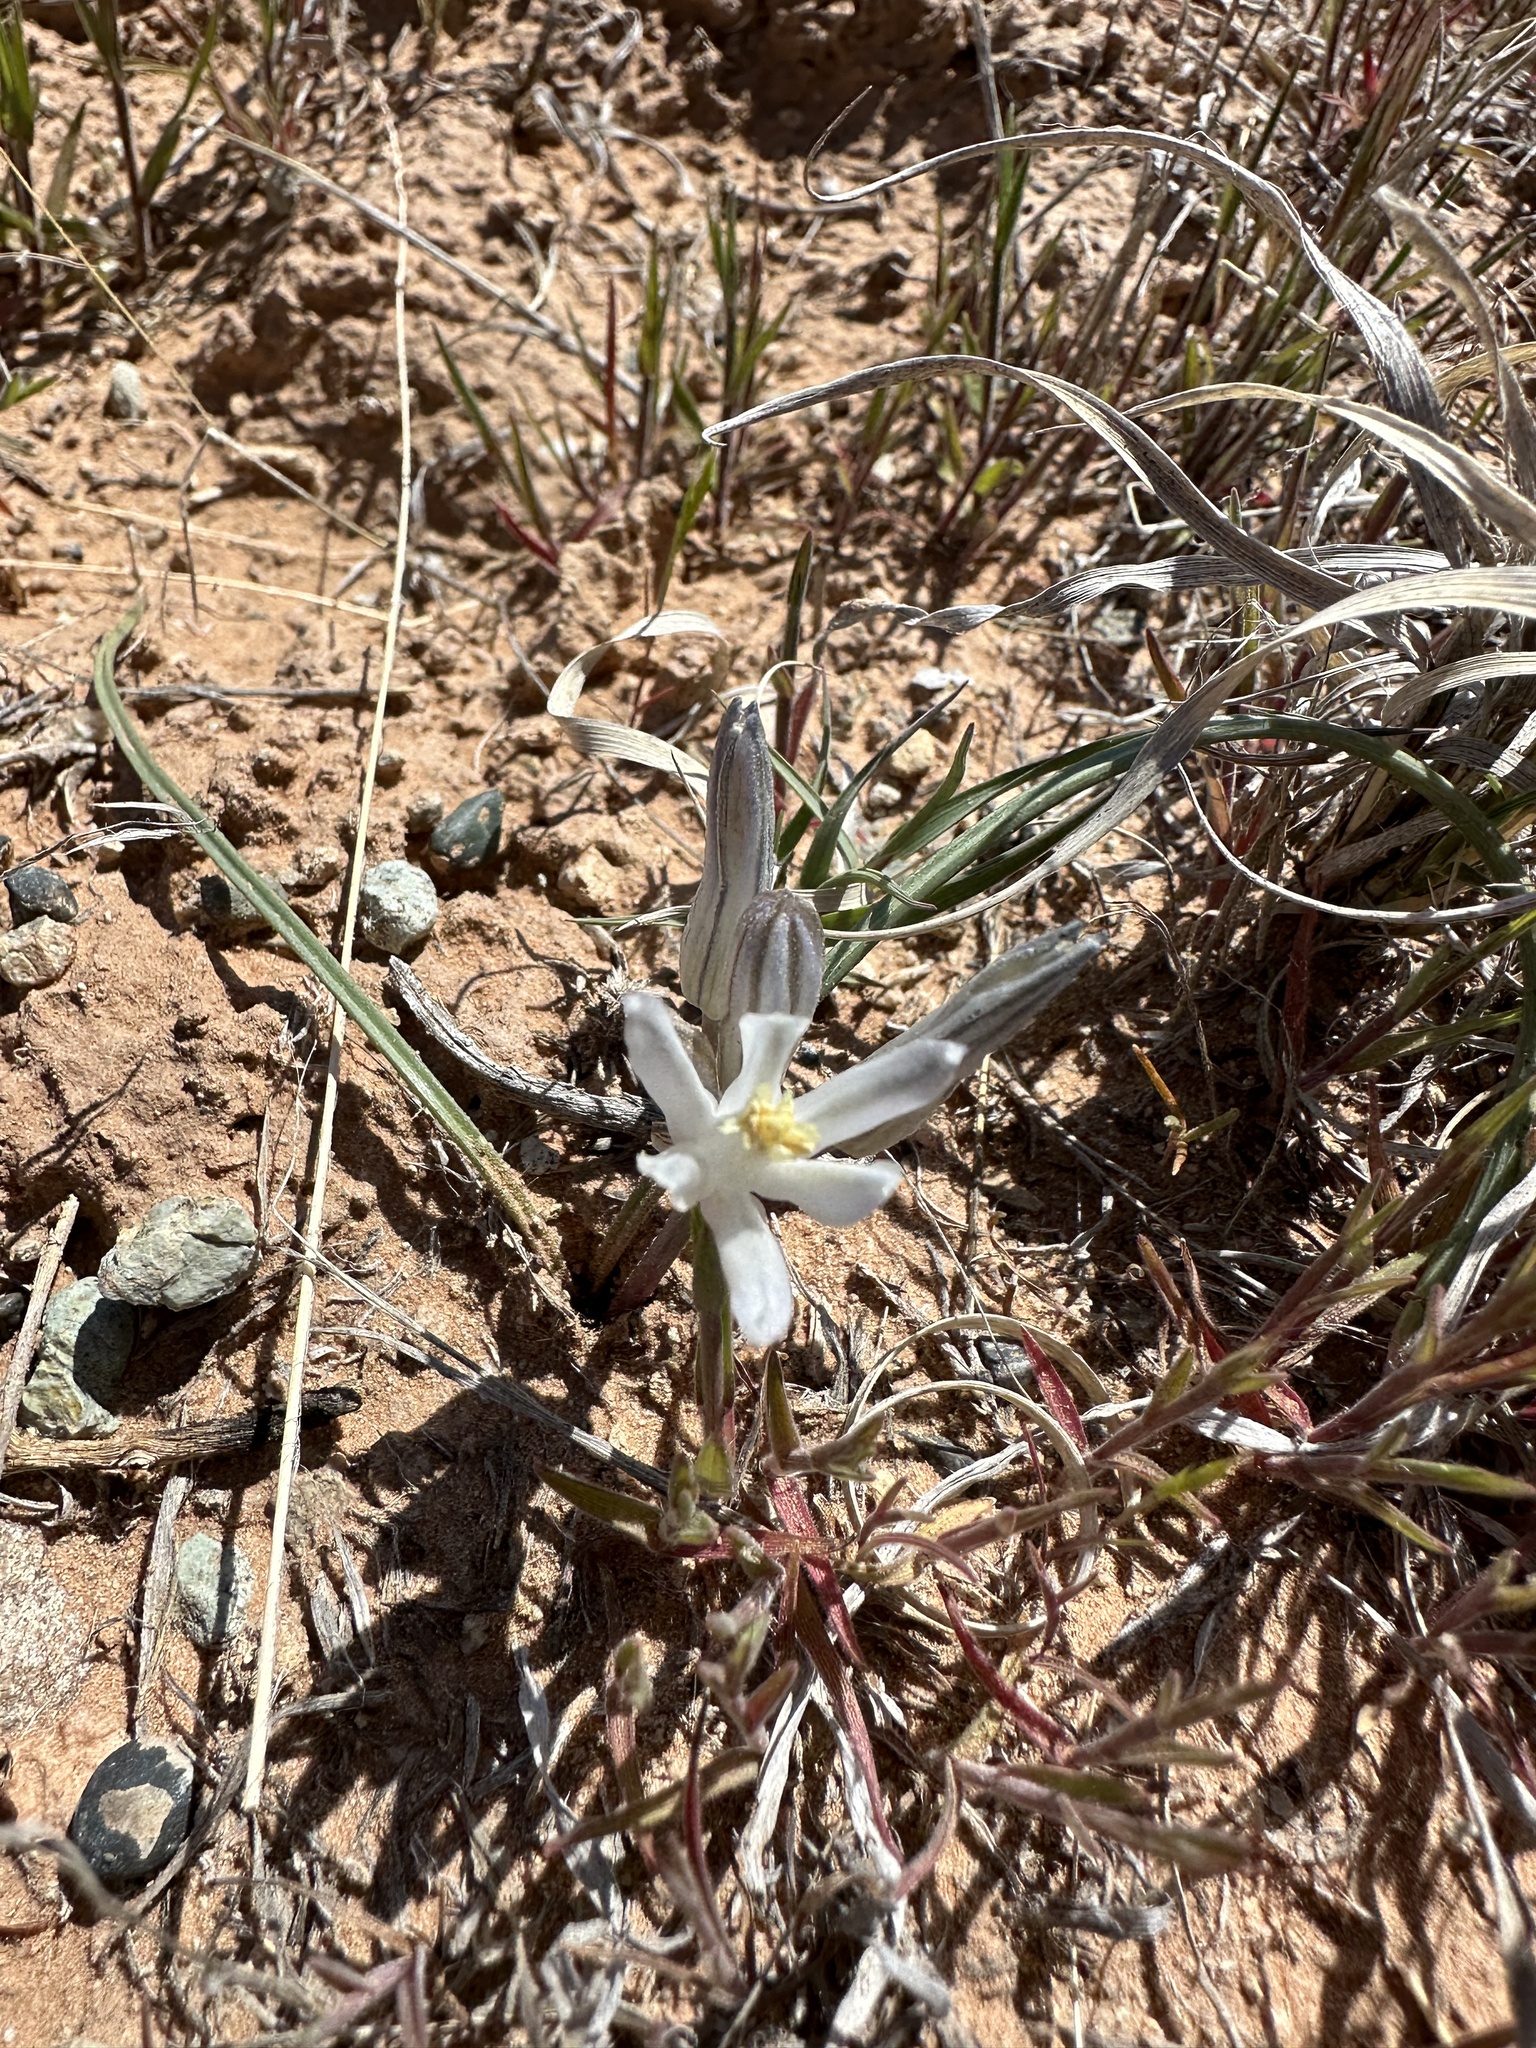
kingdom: Plantae
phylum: Tracheophyta
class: Liliopsida
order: Asparagales
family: Asparagaceae
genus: Androstephium
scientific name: Androstephium breviflorum
